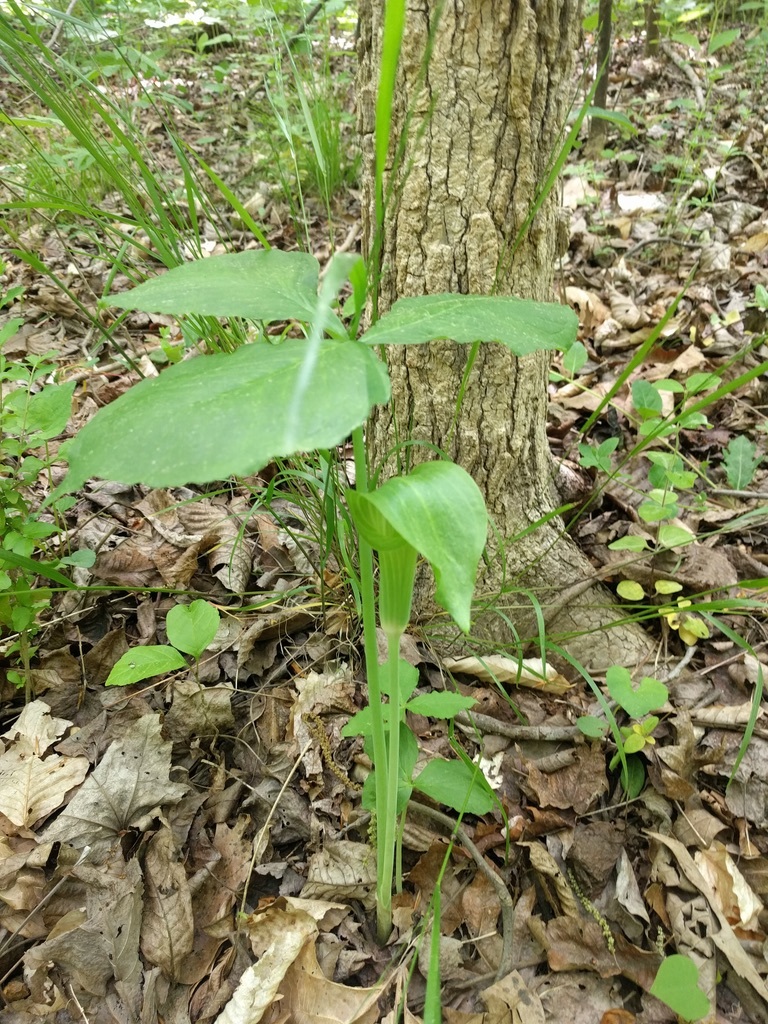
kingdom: Plantae
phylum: Tracheophyta
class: Liliopsida
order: Alismatales
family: Araceae
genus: Arisaema
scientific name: Arisaema triphyllum
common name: Jack-in-the-pulpit
